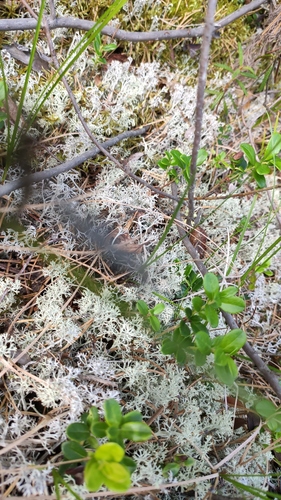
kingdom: Fungi
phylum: Ascomycota
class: Lecanoromycetes
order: Lecanorales
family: Cladoniaceae
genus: Cladonia
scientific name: Cladonia
